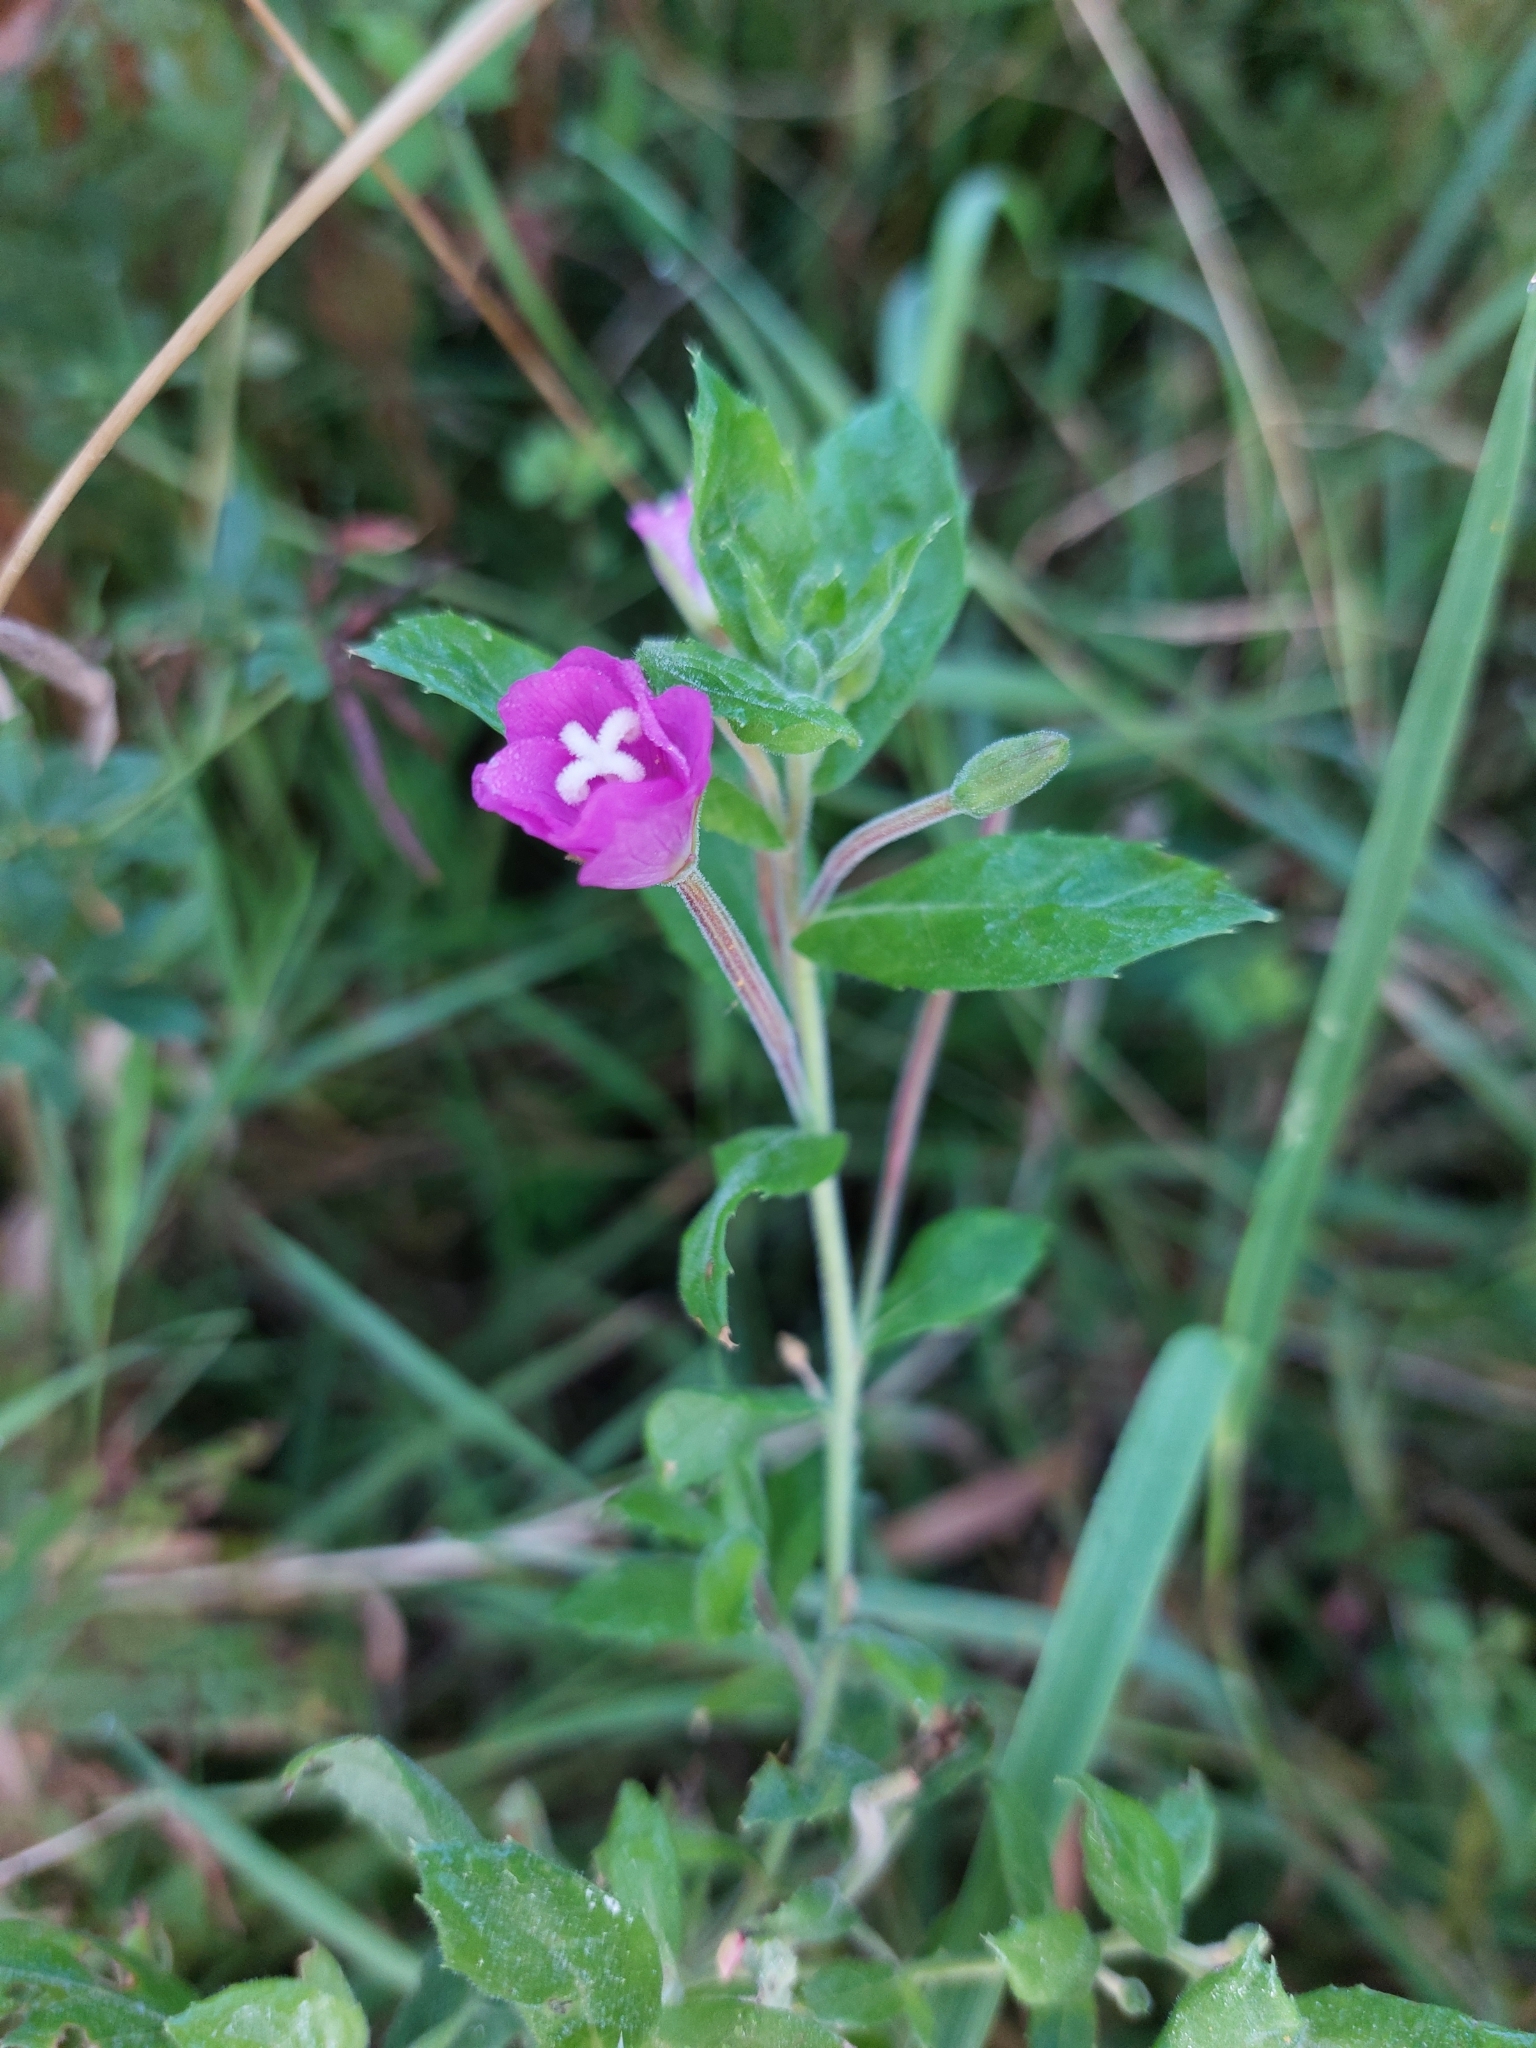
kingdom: Plantae
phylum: Tracheophyta
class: Magnoliopsida
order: Myrtales
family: Onagraceae
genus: Epilobium
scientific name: Epilobium hirsutum
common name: Great willowherb
